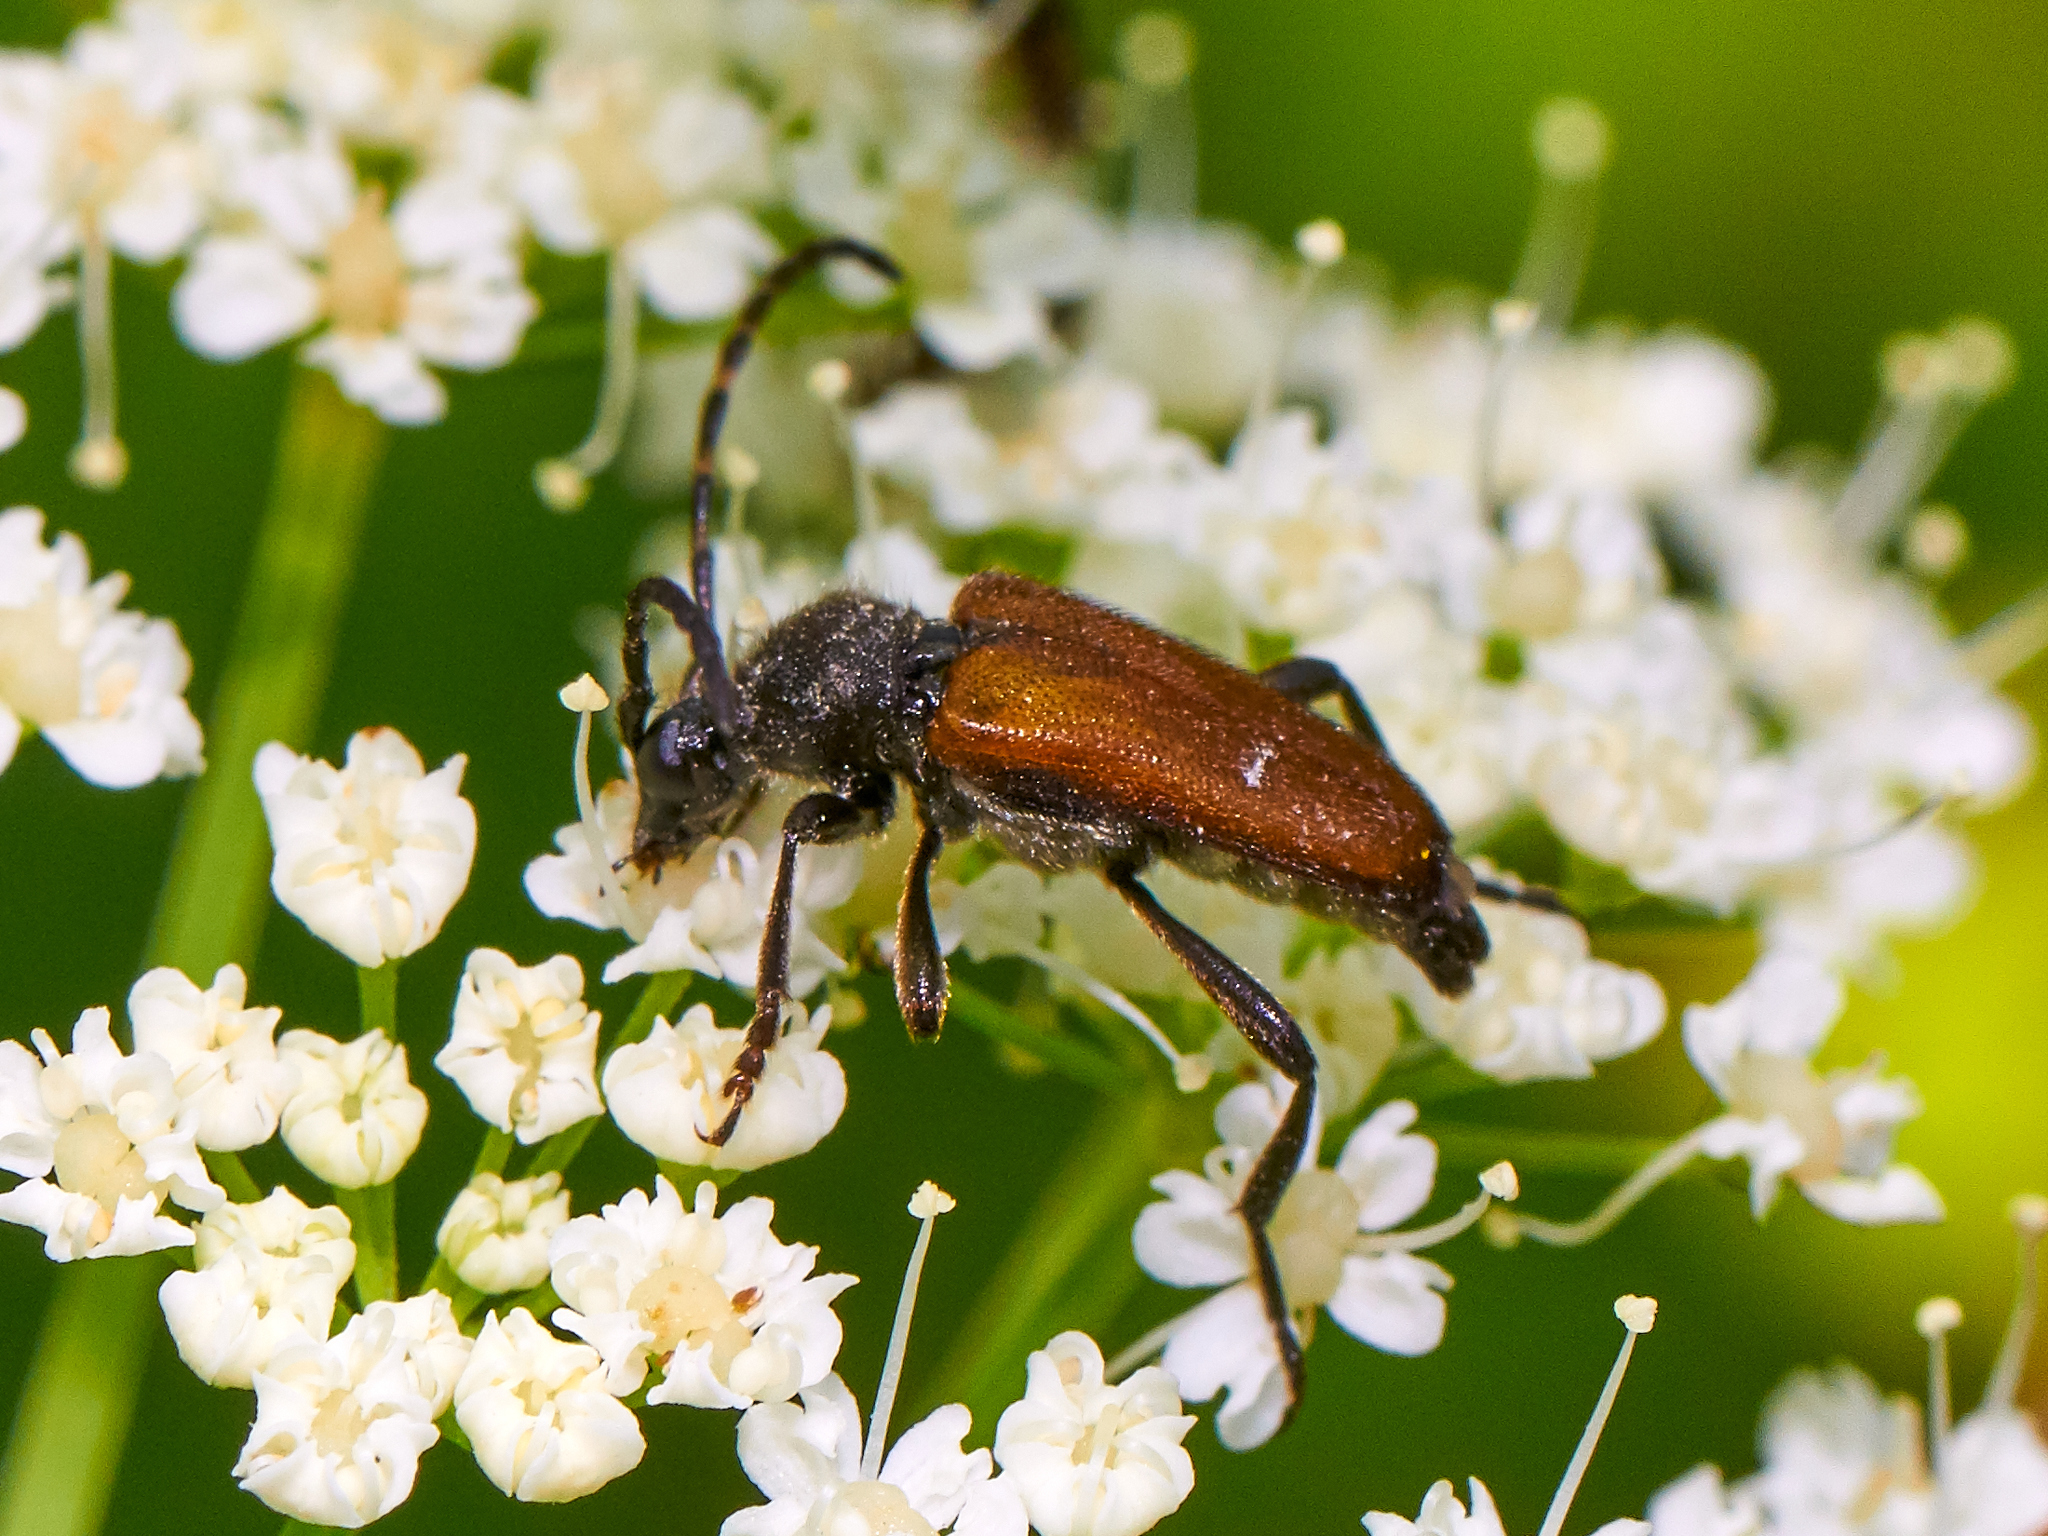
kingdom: Animalia
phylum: Arthropoda
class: Insecta
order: Coleoptera
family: Cerambycidae
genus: Paracorymbia
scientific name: Paracorymbia maculicornis
